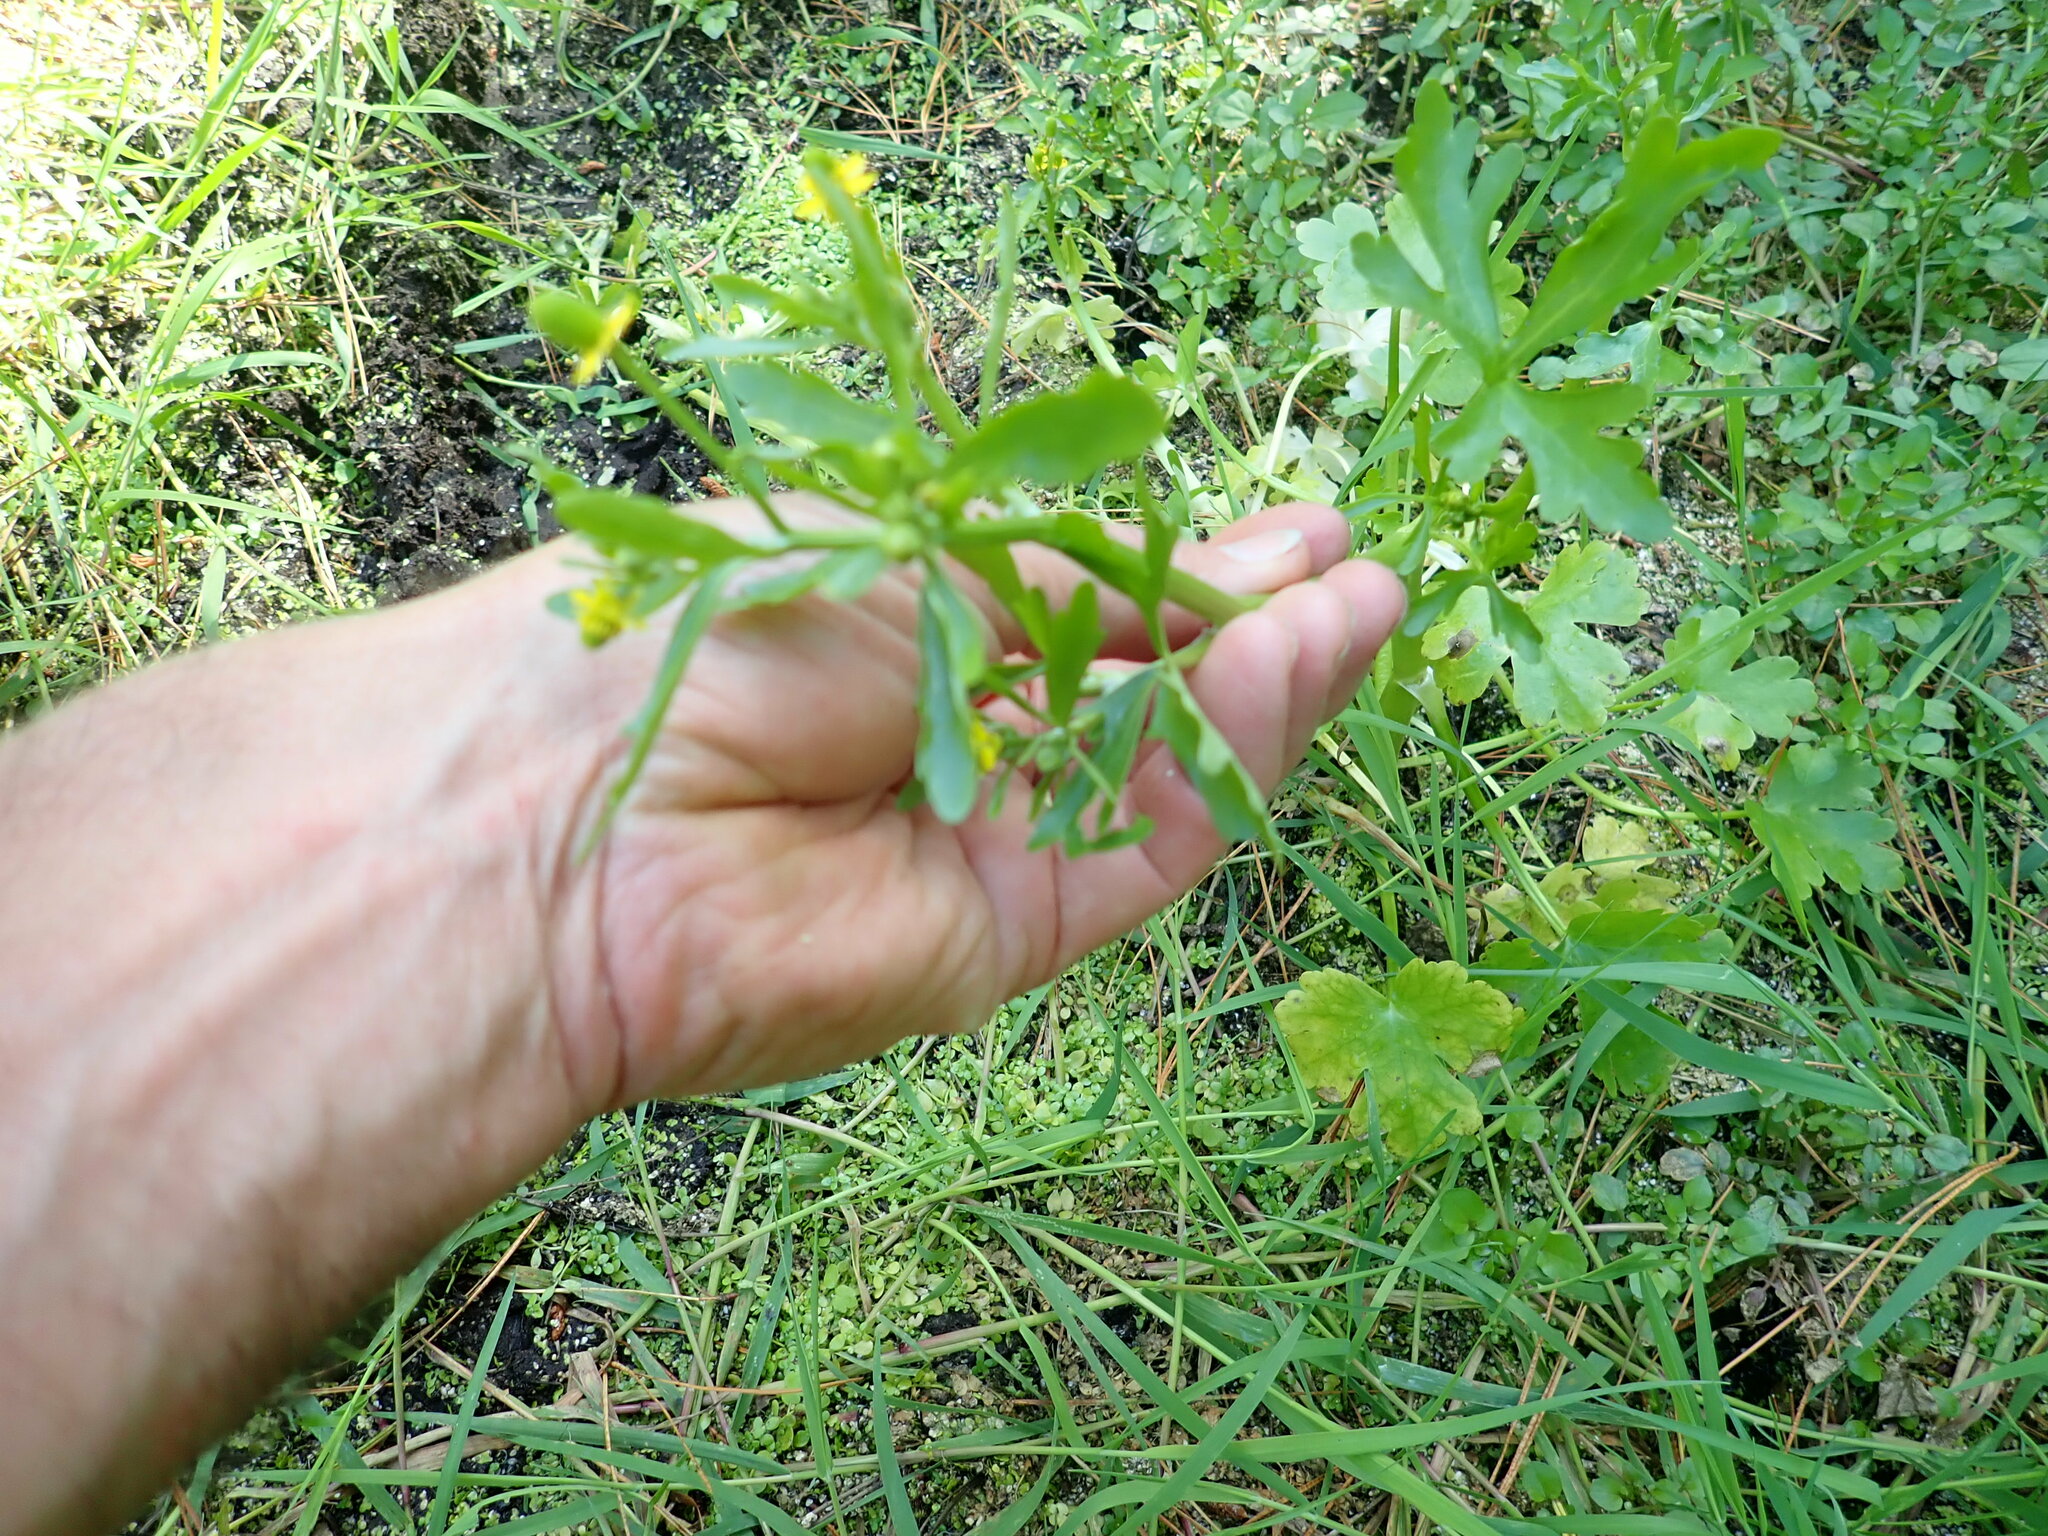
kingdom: Plantae
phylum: Tracheophyta
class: Magnoliopsida
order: Ranunculales
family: Ranunculaceae
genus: Ranunculus
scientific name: Ranunculus sceleratus
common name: Celery-leaved buttercup
